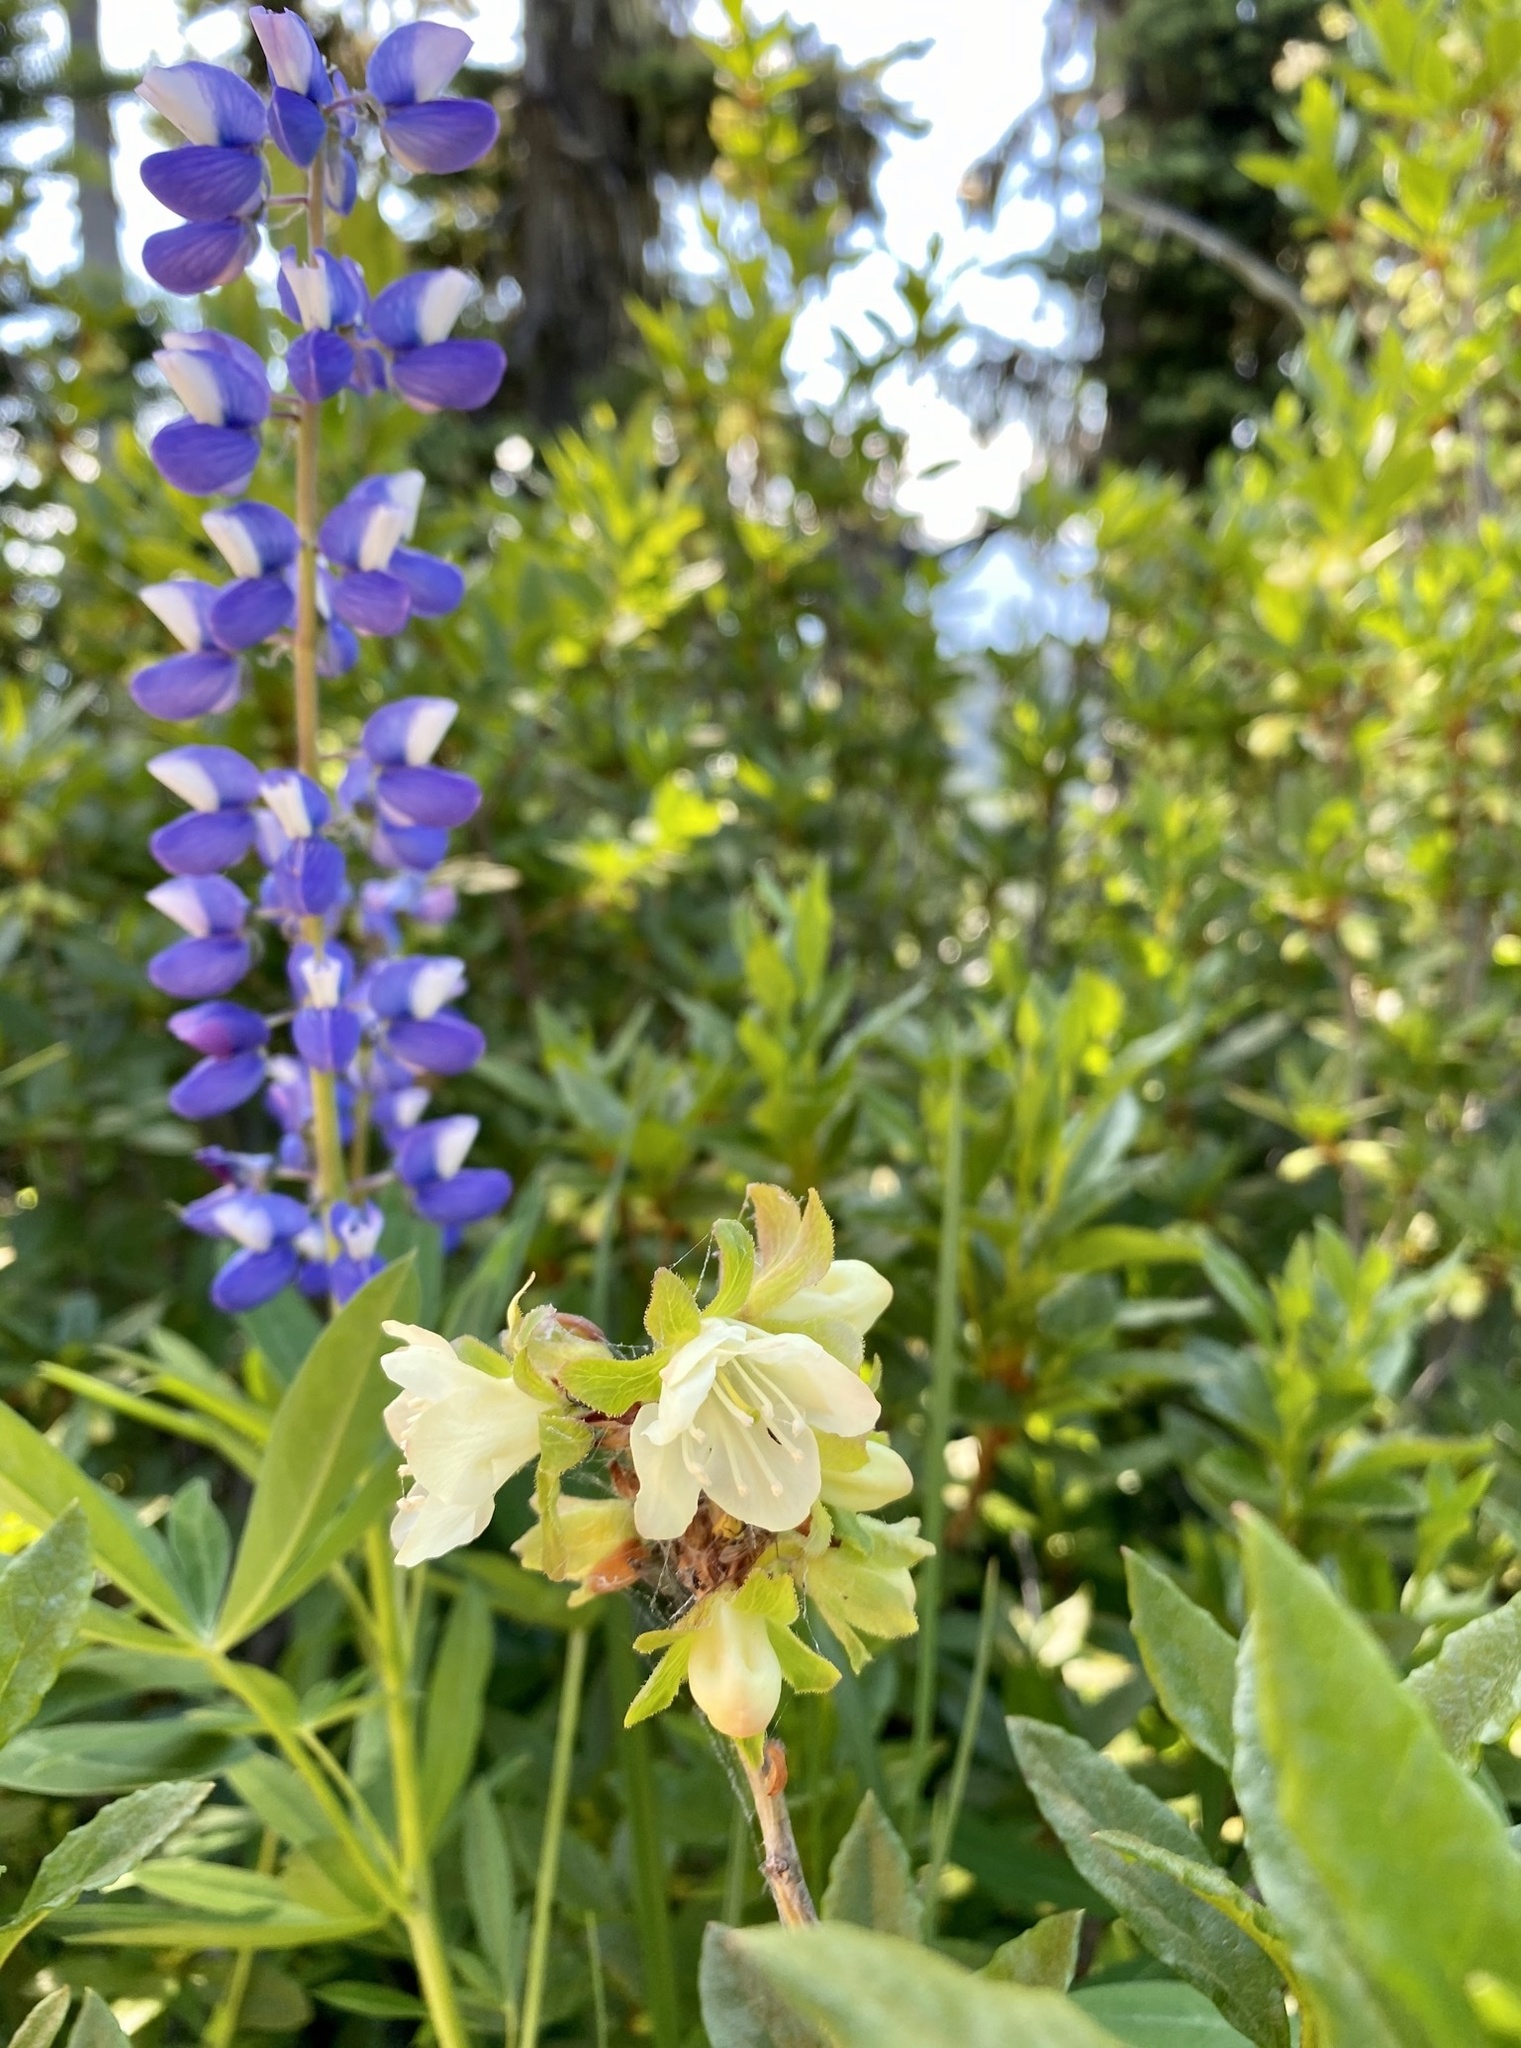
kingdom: Plantae
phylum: Tracheophyta
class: Magnoliopsida
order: Ericales
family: Ericaceae
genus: Rhododendron
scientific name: Rhododendron albiflorum
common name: White rhododendron
